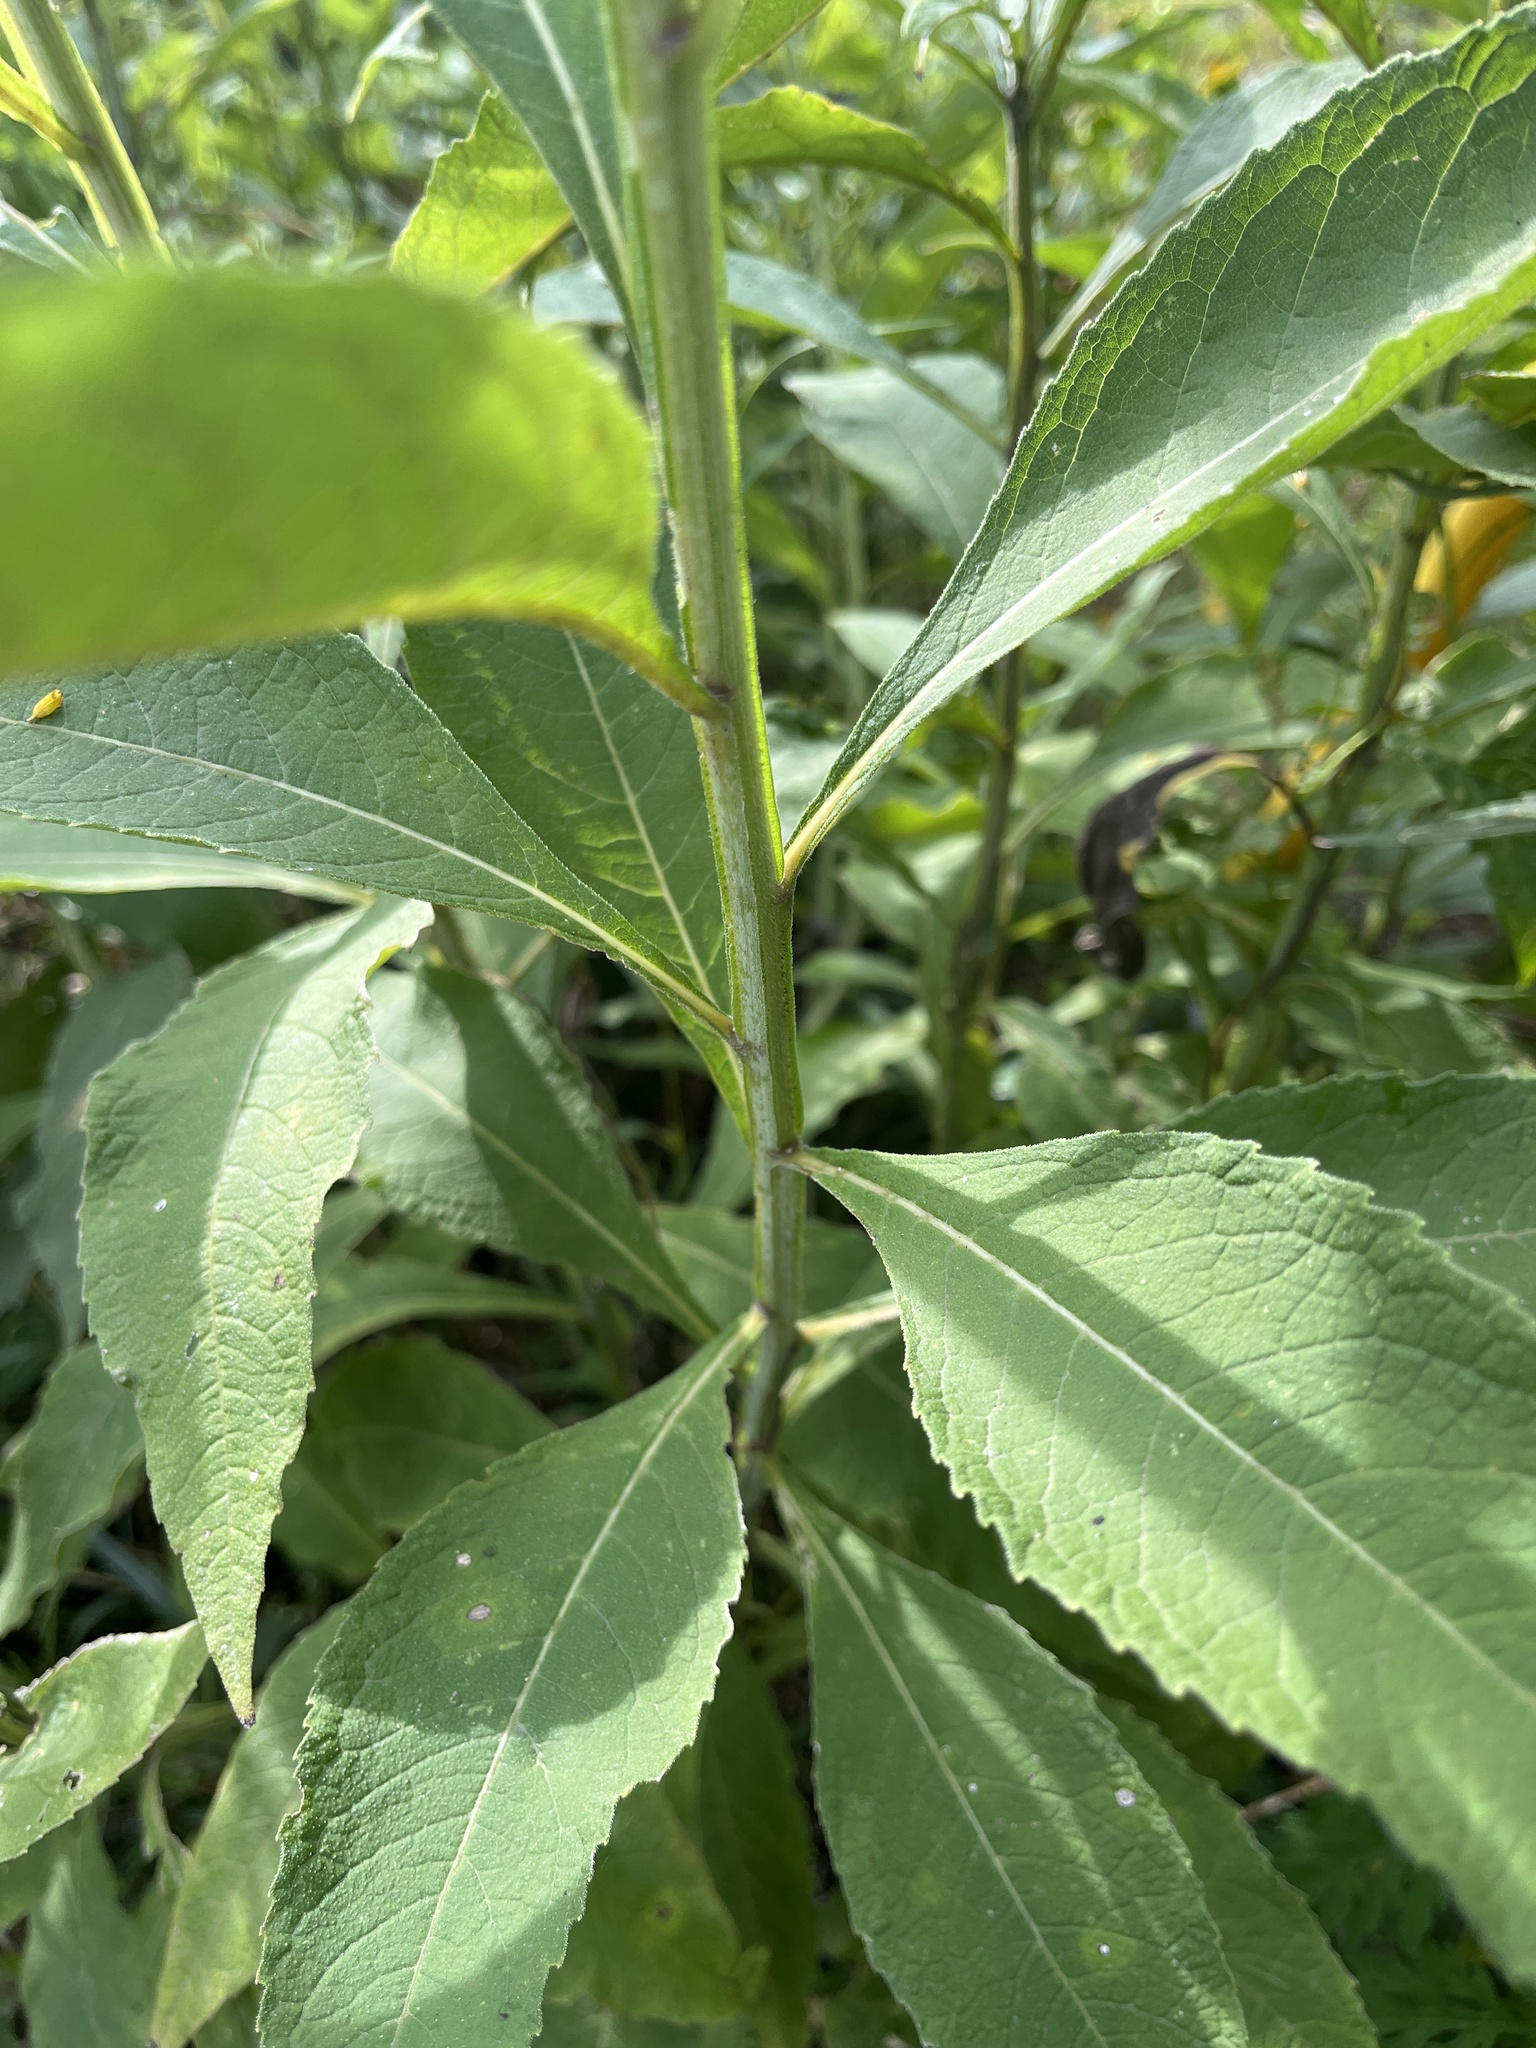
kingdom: Plantae
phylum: Tracheophyta
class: Magnoliopsida
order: Asterales
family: Asteraceae
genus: Verbesina
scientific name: Verbesina alternifolia
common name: Wingstem
